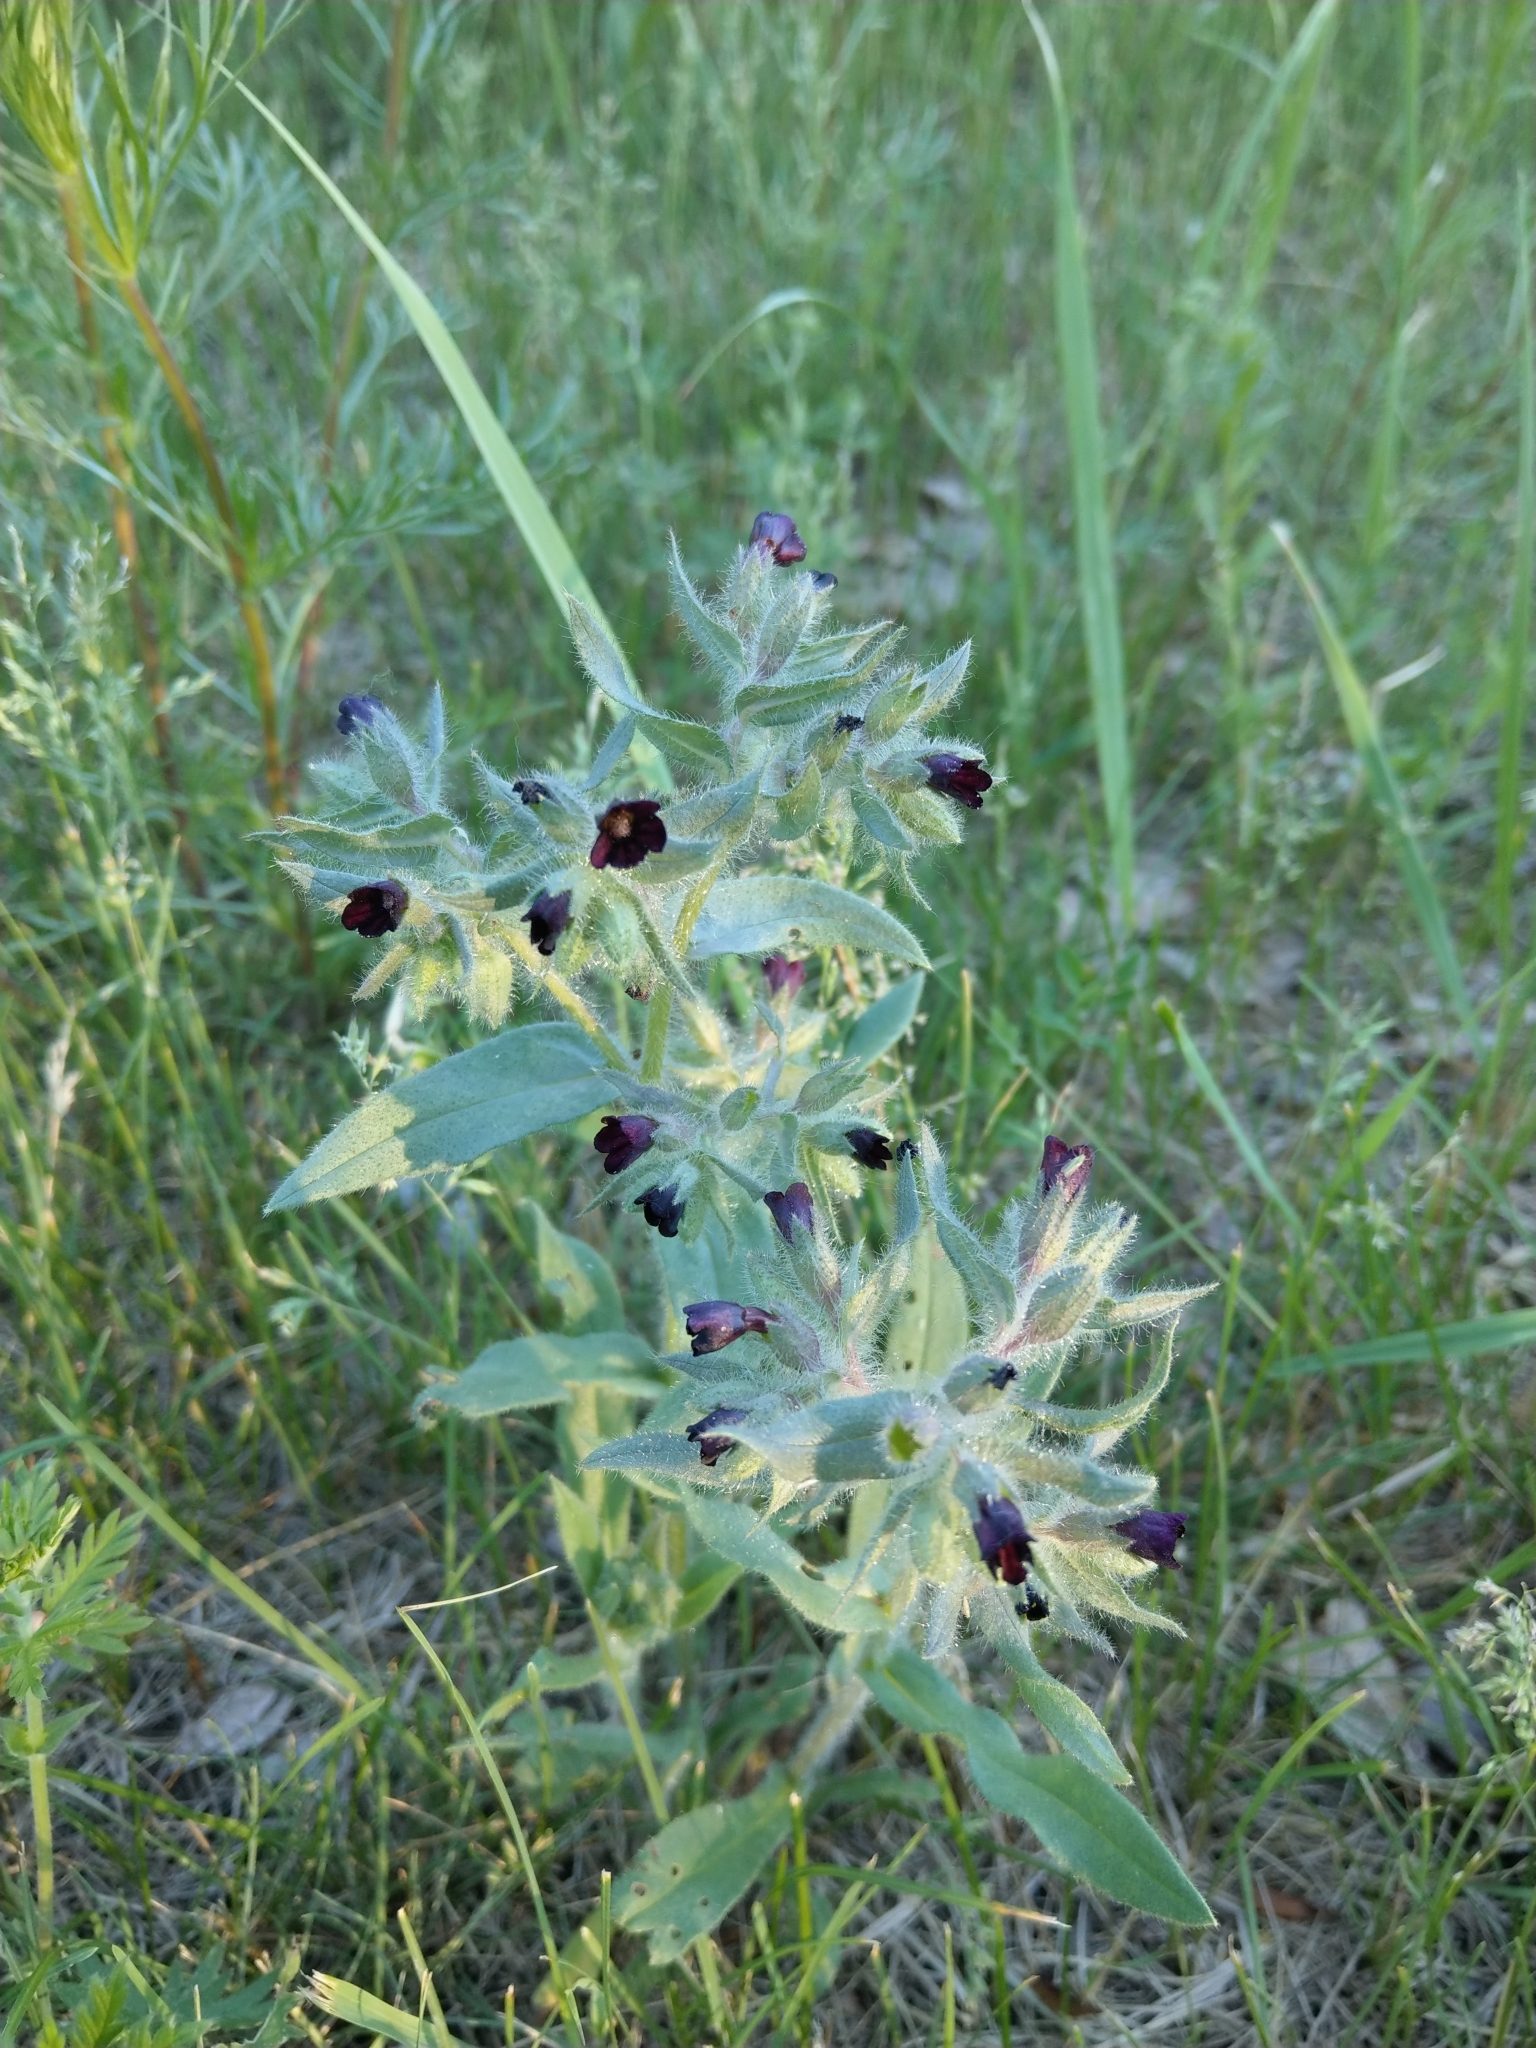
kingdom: Plantae
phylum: Tracheophyta
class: Magnoliopsida
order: Boraginales
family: Boraginaceae
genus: Nonea
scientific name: Nonea pulla
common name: Brown nonea
